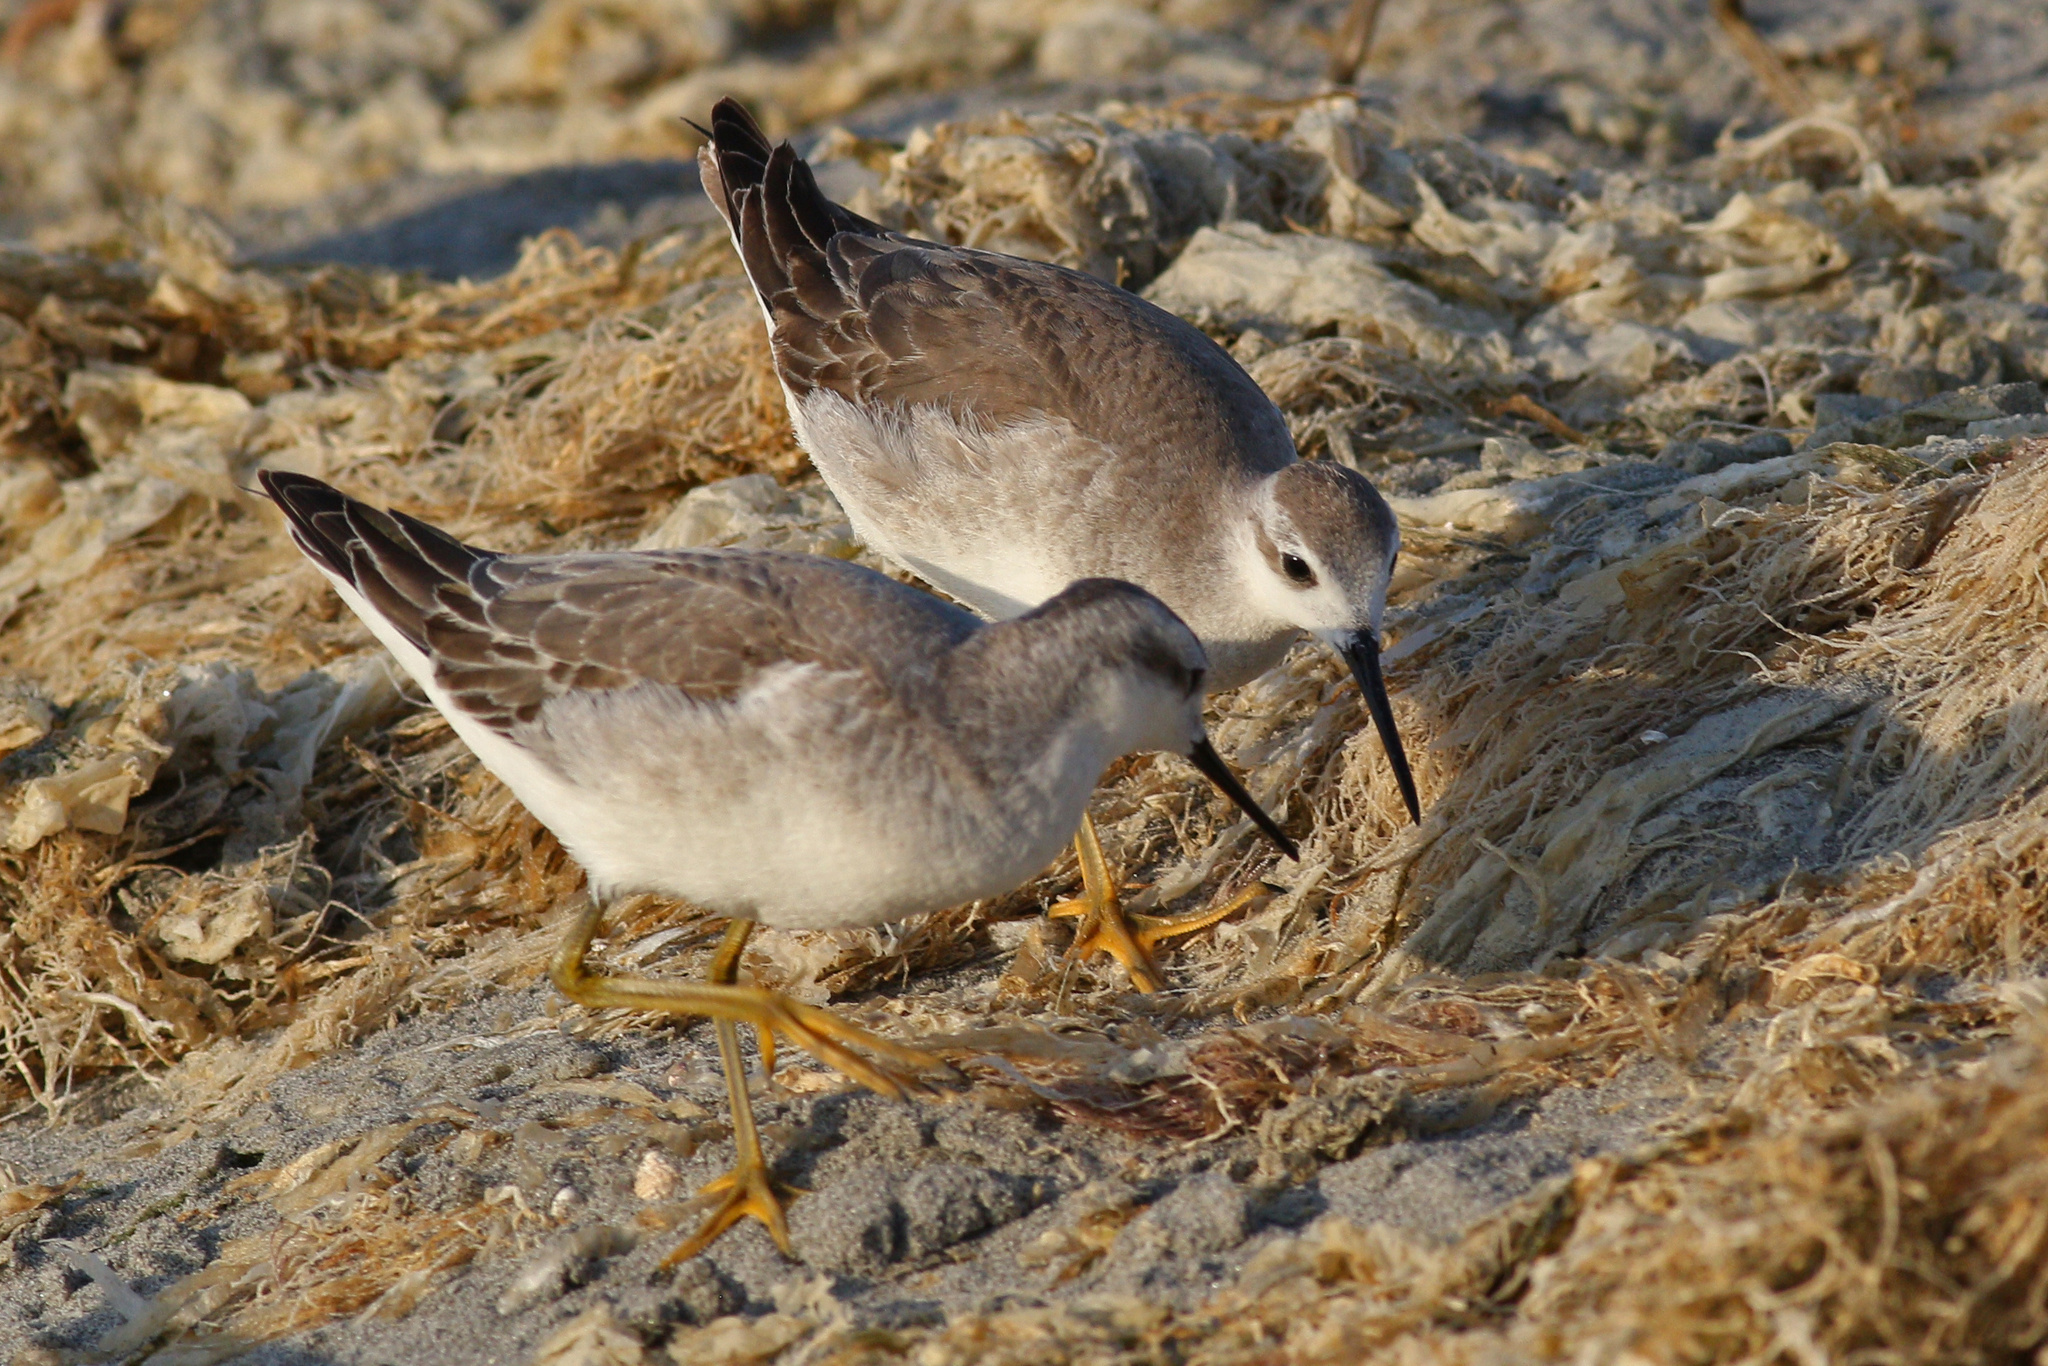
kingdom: Animalia
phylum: Chordata
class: Aves
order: Charadriiformes
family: Scolopacidae
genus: Phalaropus
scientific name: Phalaropus tricolor
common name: Wilson's phalarope
